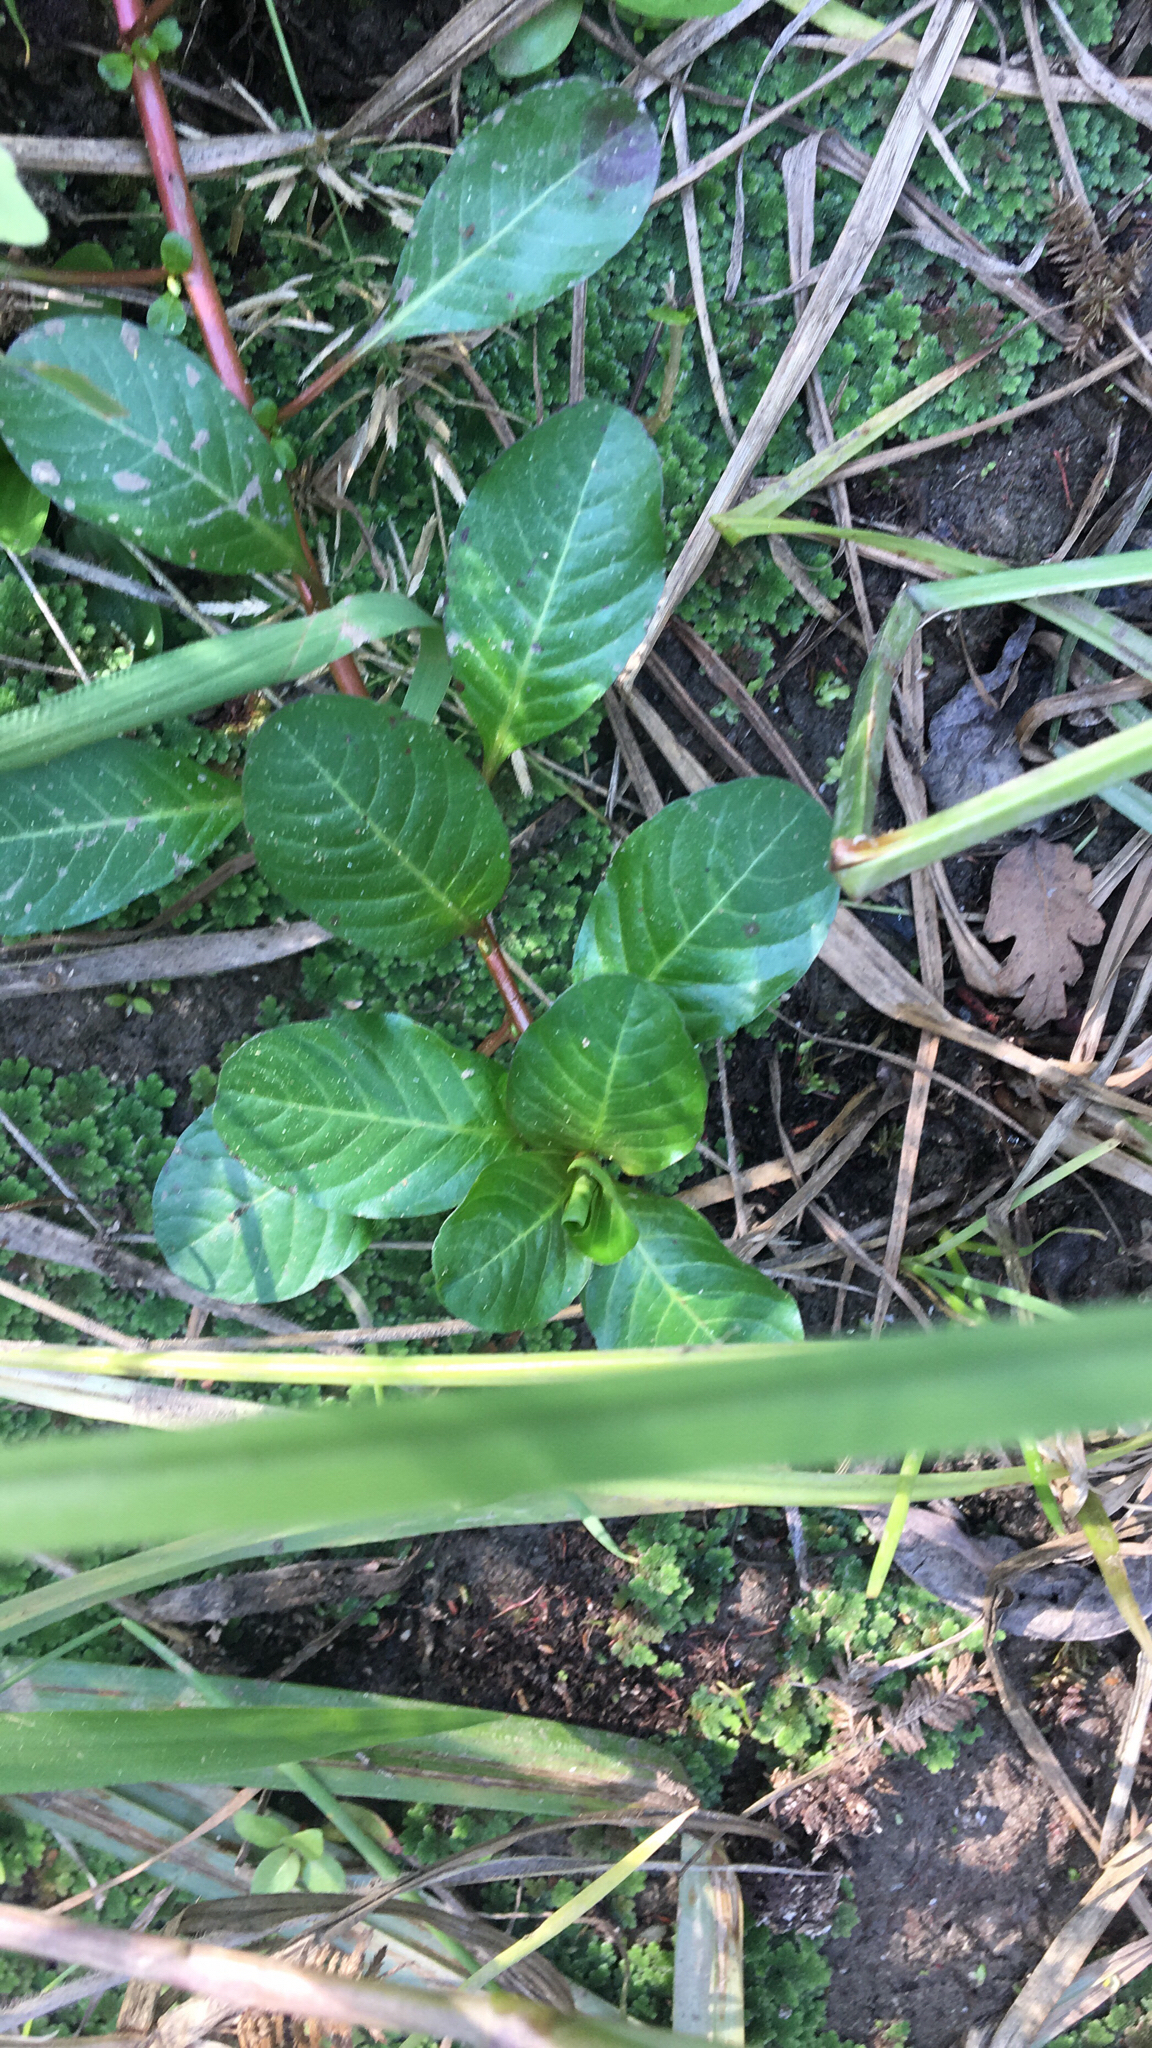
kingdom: Plantae
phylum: Tracheophyta
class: Magnoliopsida
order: Myrtales
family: Onagraceae
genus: Ludwigia
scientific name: Ludwigia peploides
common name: Floating primrose-willow
